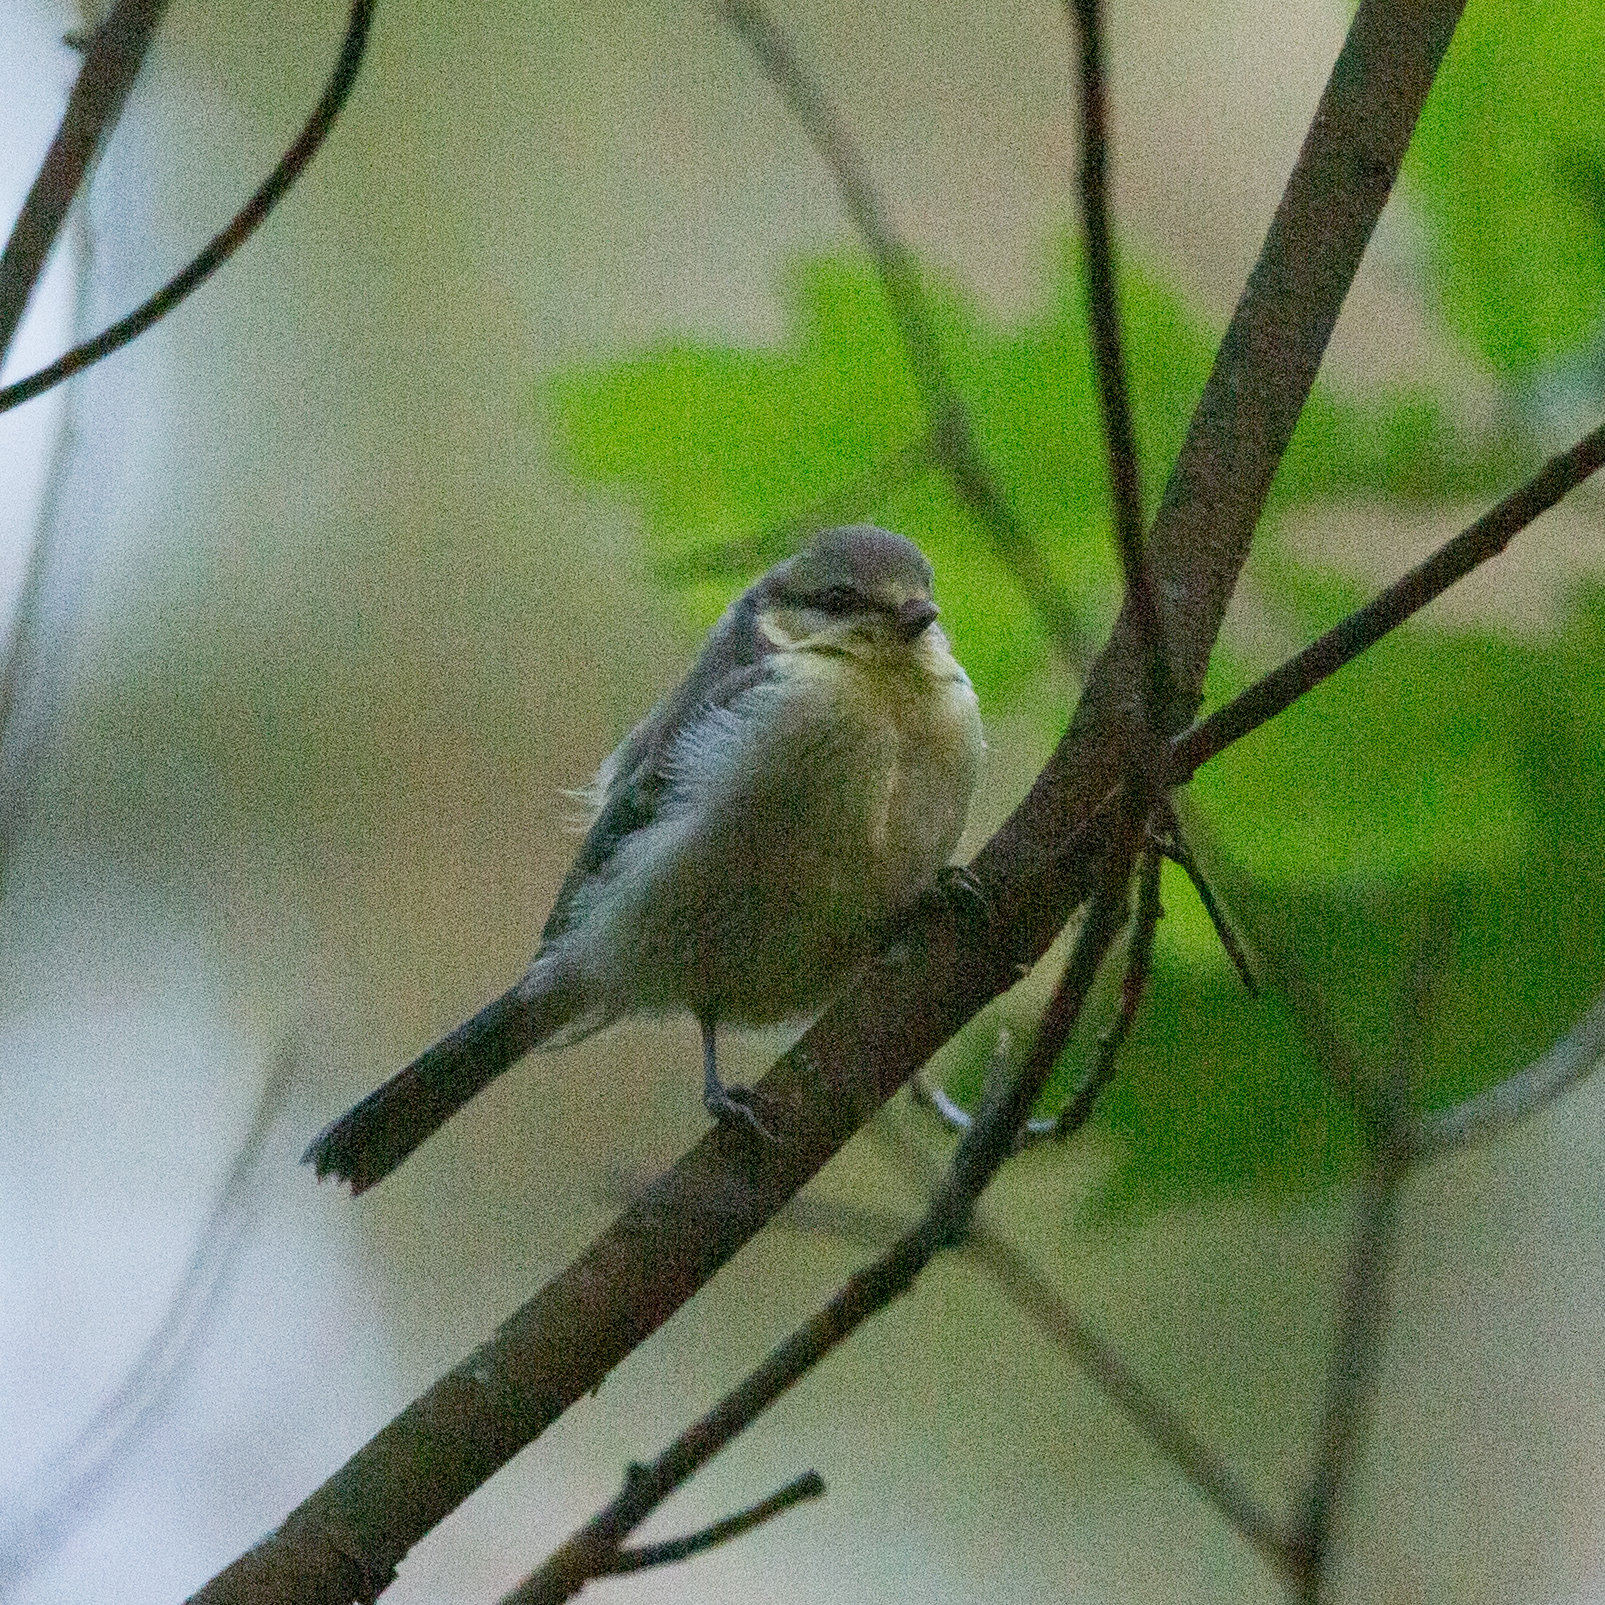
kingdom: Animalia
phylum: Chordata
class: Aves
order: Passeriformes
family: Paridae
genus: Cyanistes
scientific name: Cyanistes caeruleus
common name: Eurasian blue tit
